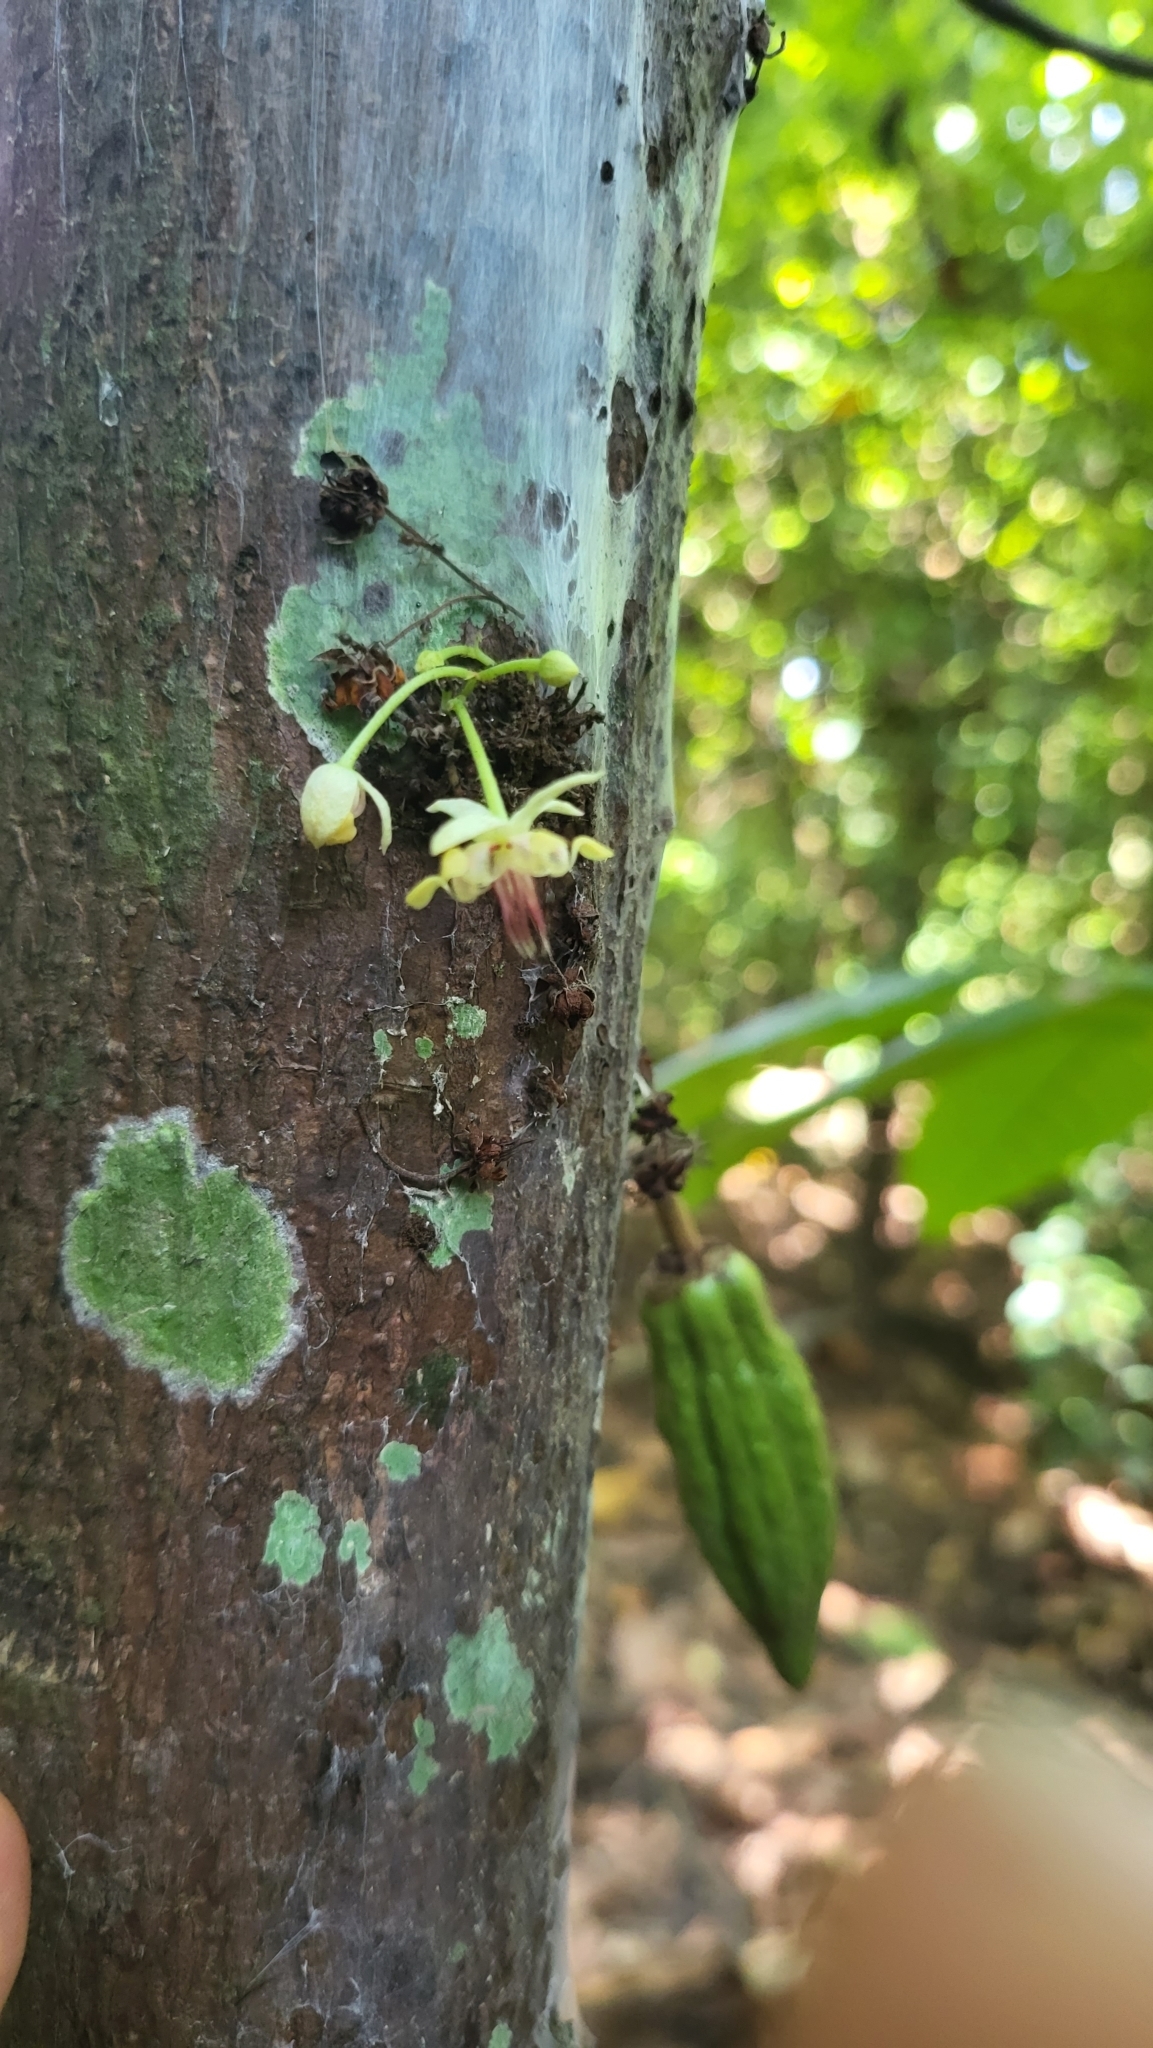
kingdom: Plantae
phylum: Tracheophyta
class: Magnoliopsida
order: Malvales
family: Malvaceae
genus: Theobroma
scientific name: Theobroma cacao
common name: Cocoa
